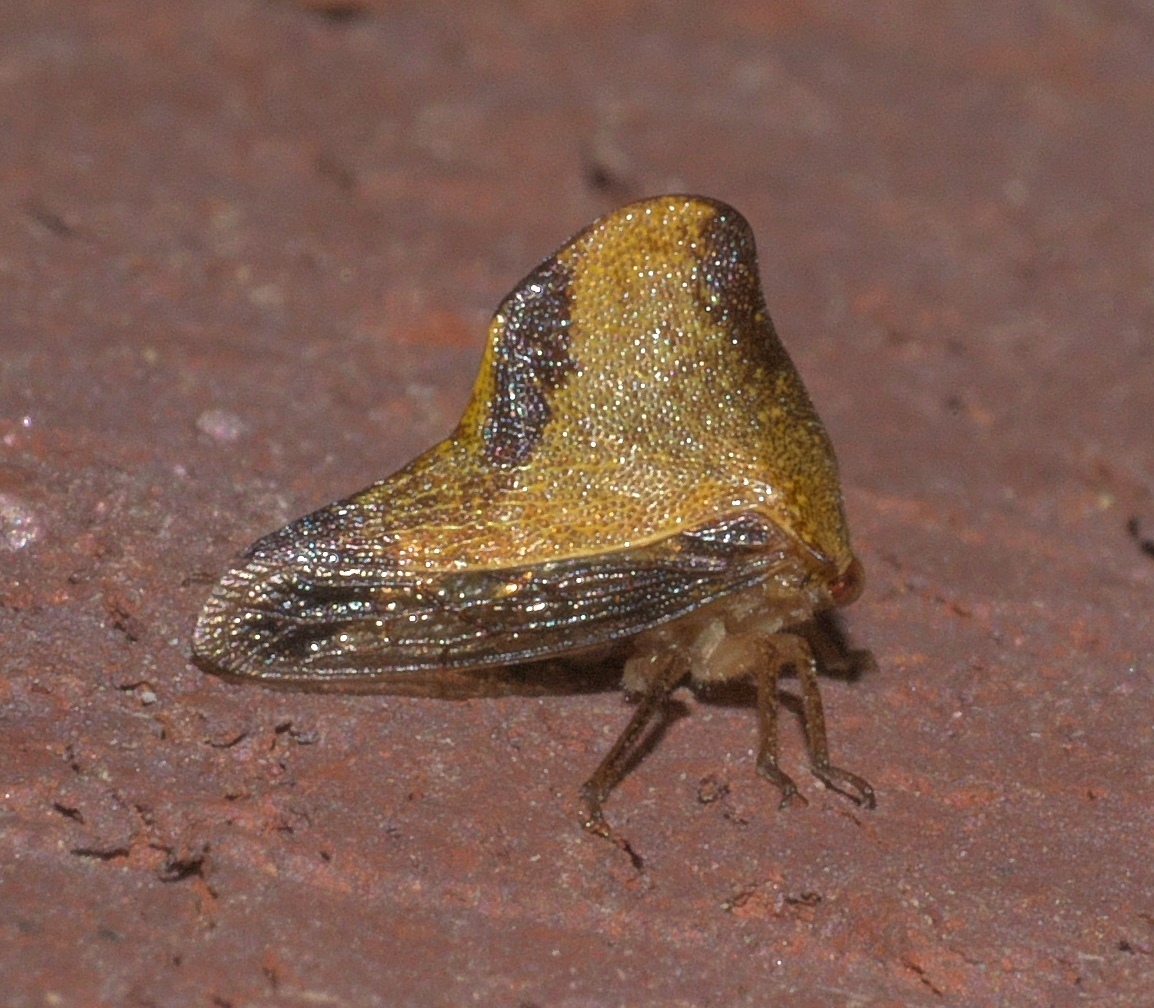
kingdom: Animalia
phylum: Arthropoda
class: Insecta
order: Hemiptera
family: Membracidae
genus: Helonica
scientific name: Helonica excelsa
